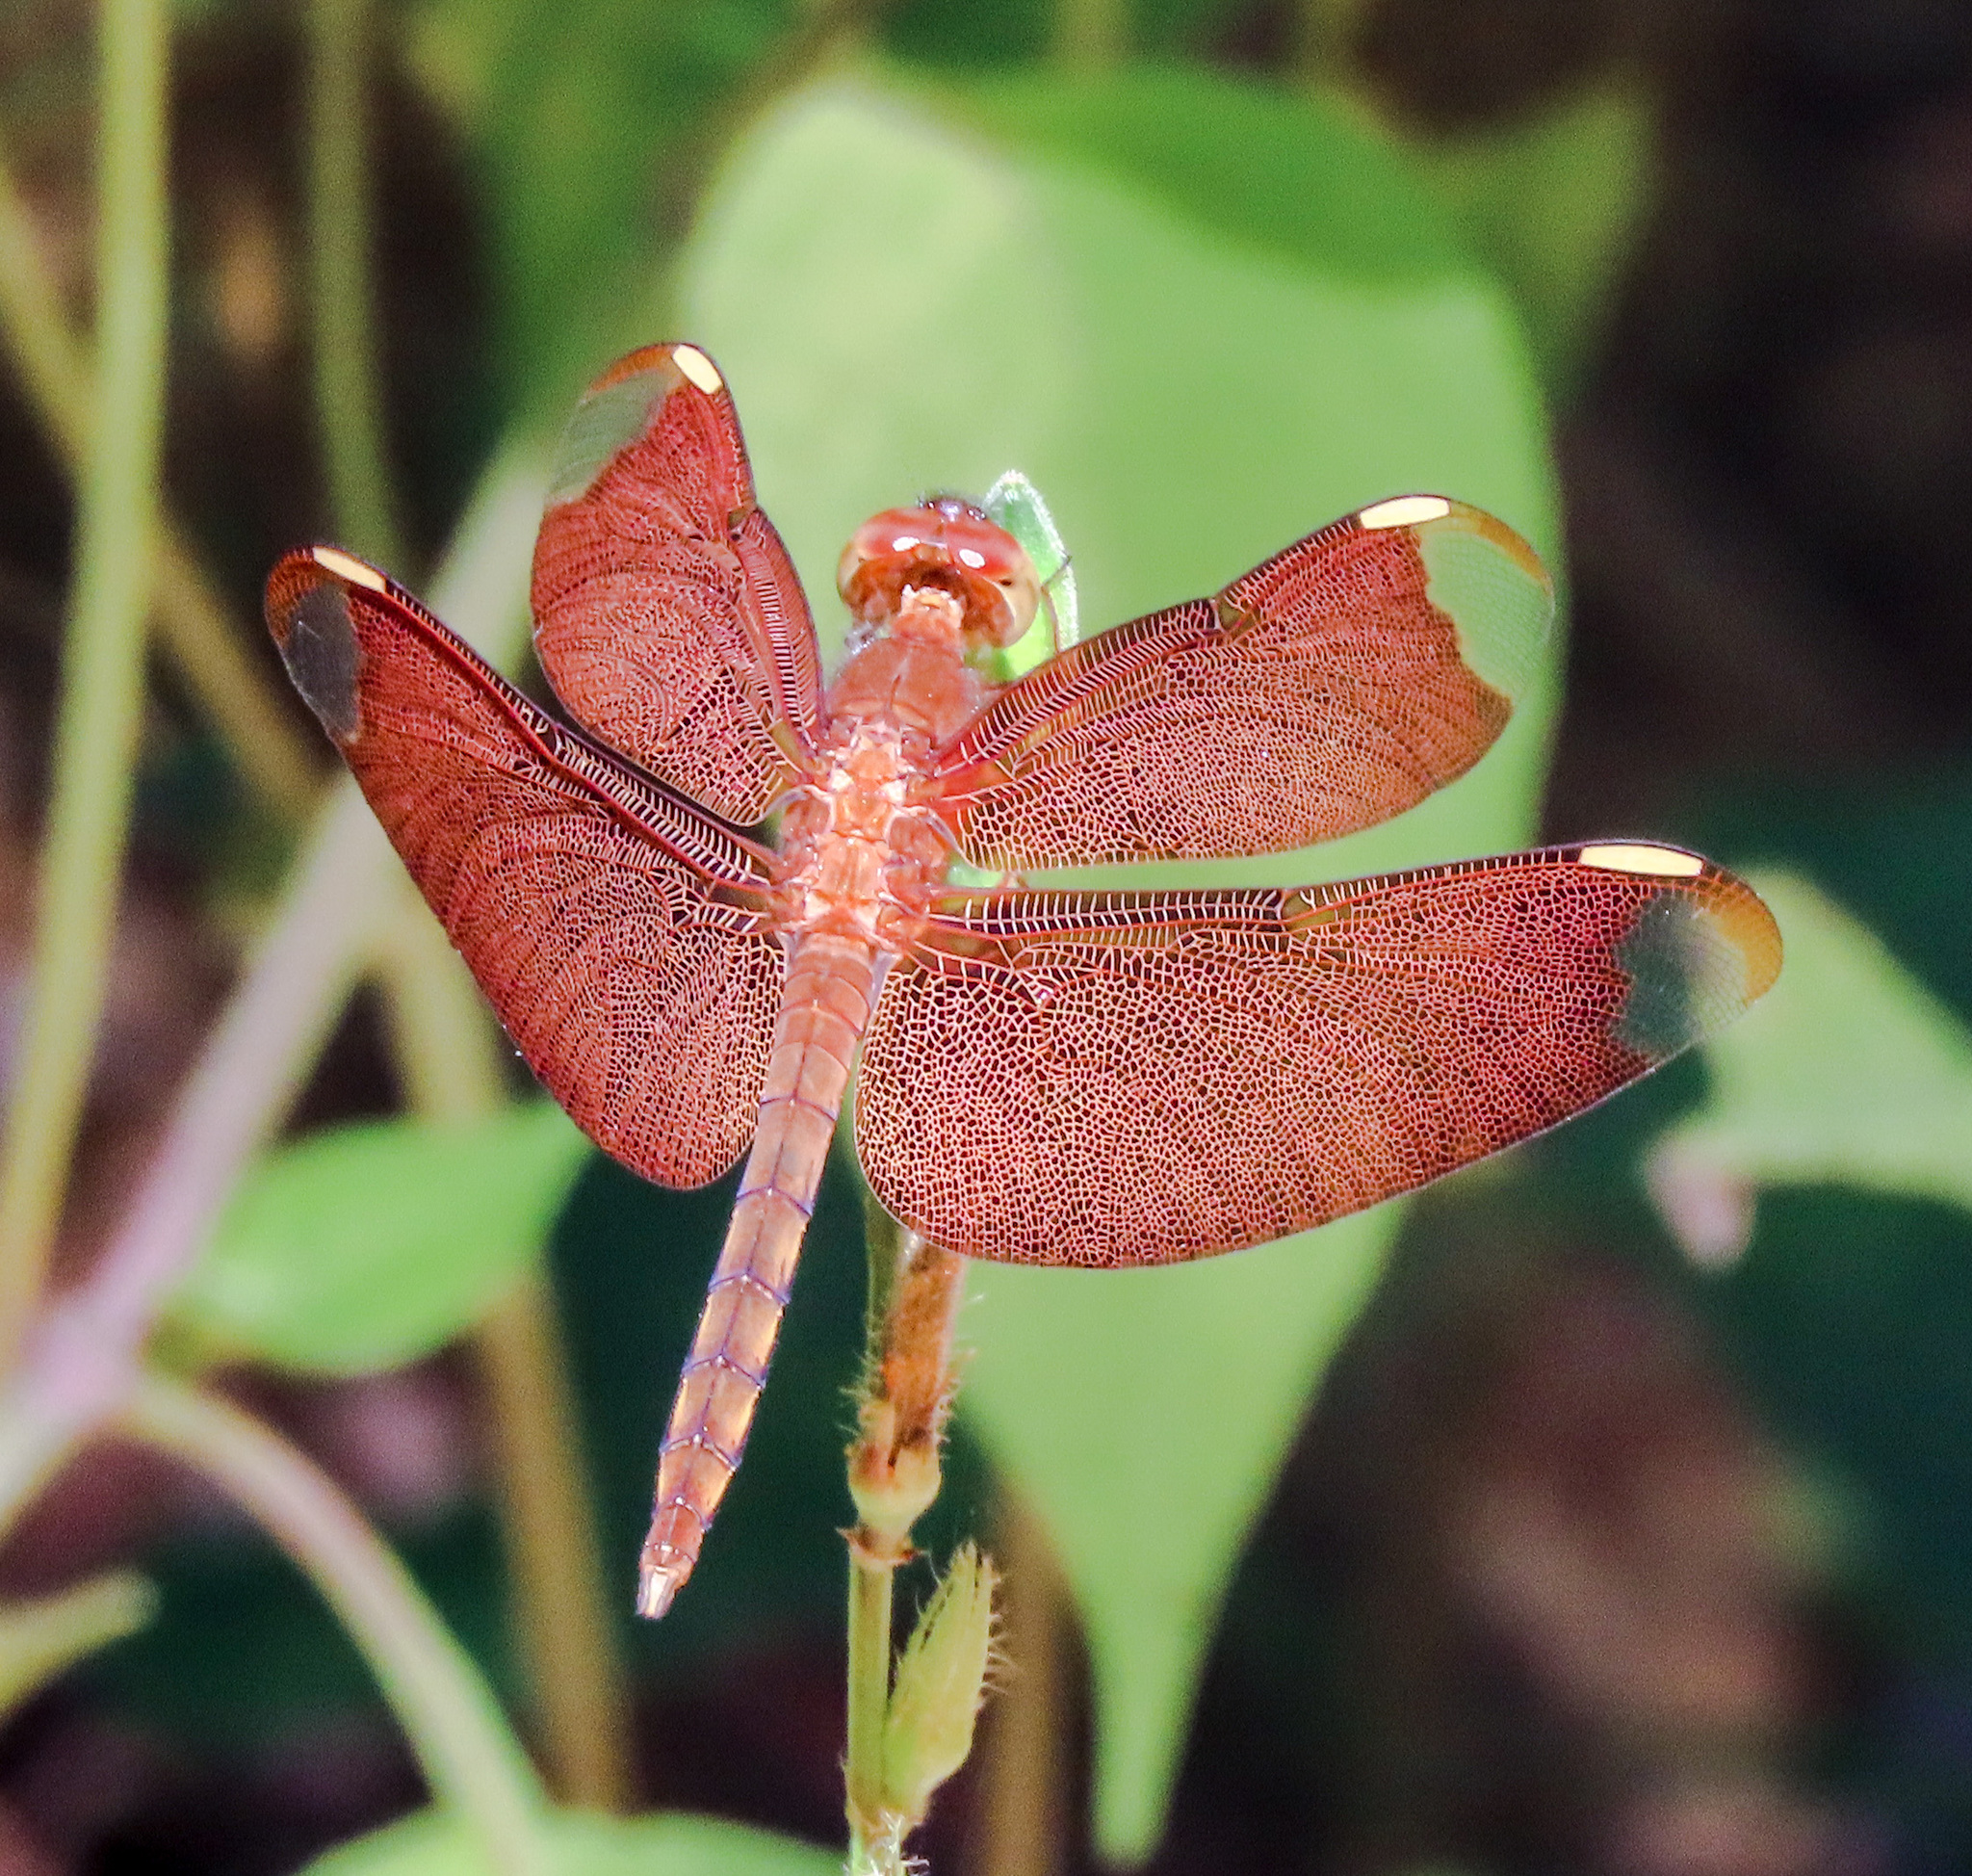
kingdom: Animalia
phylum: Arthropoda
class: Insecta
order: Odonata
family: Libellulidae
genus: Neurothemis
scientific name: Neurothemis fulvia
